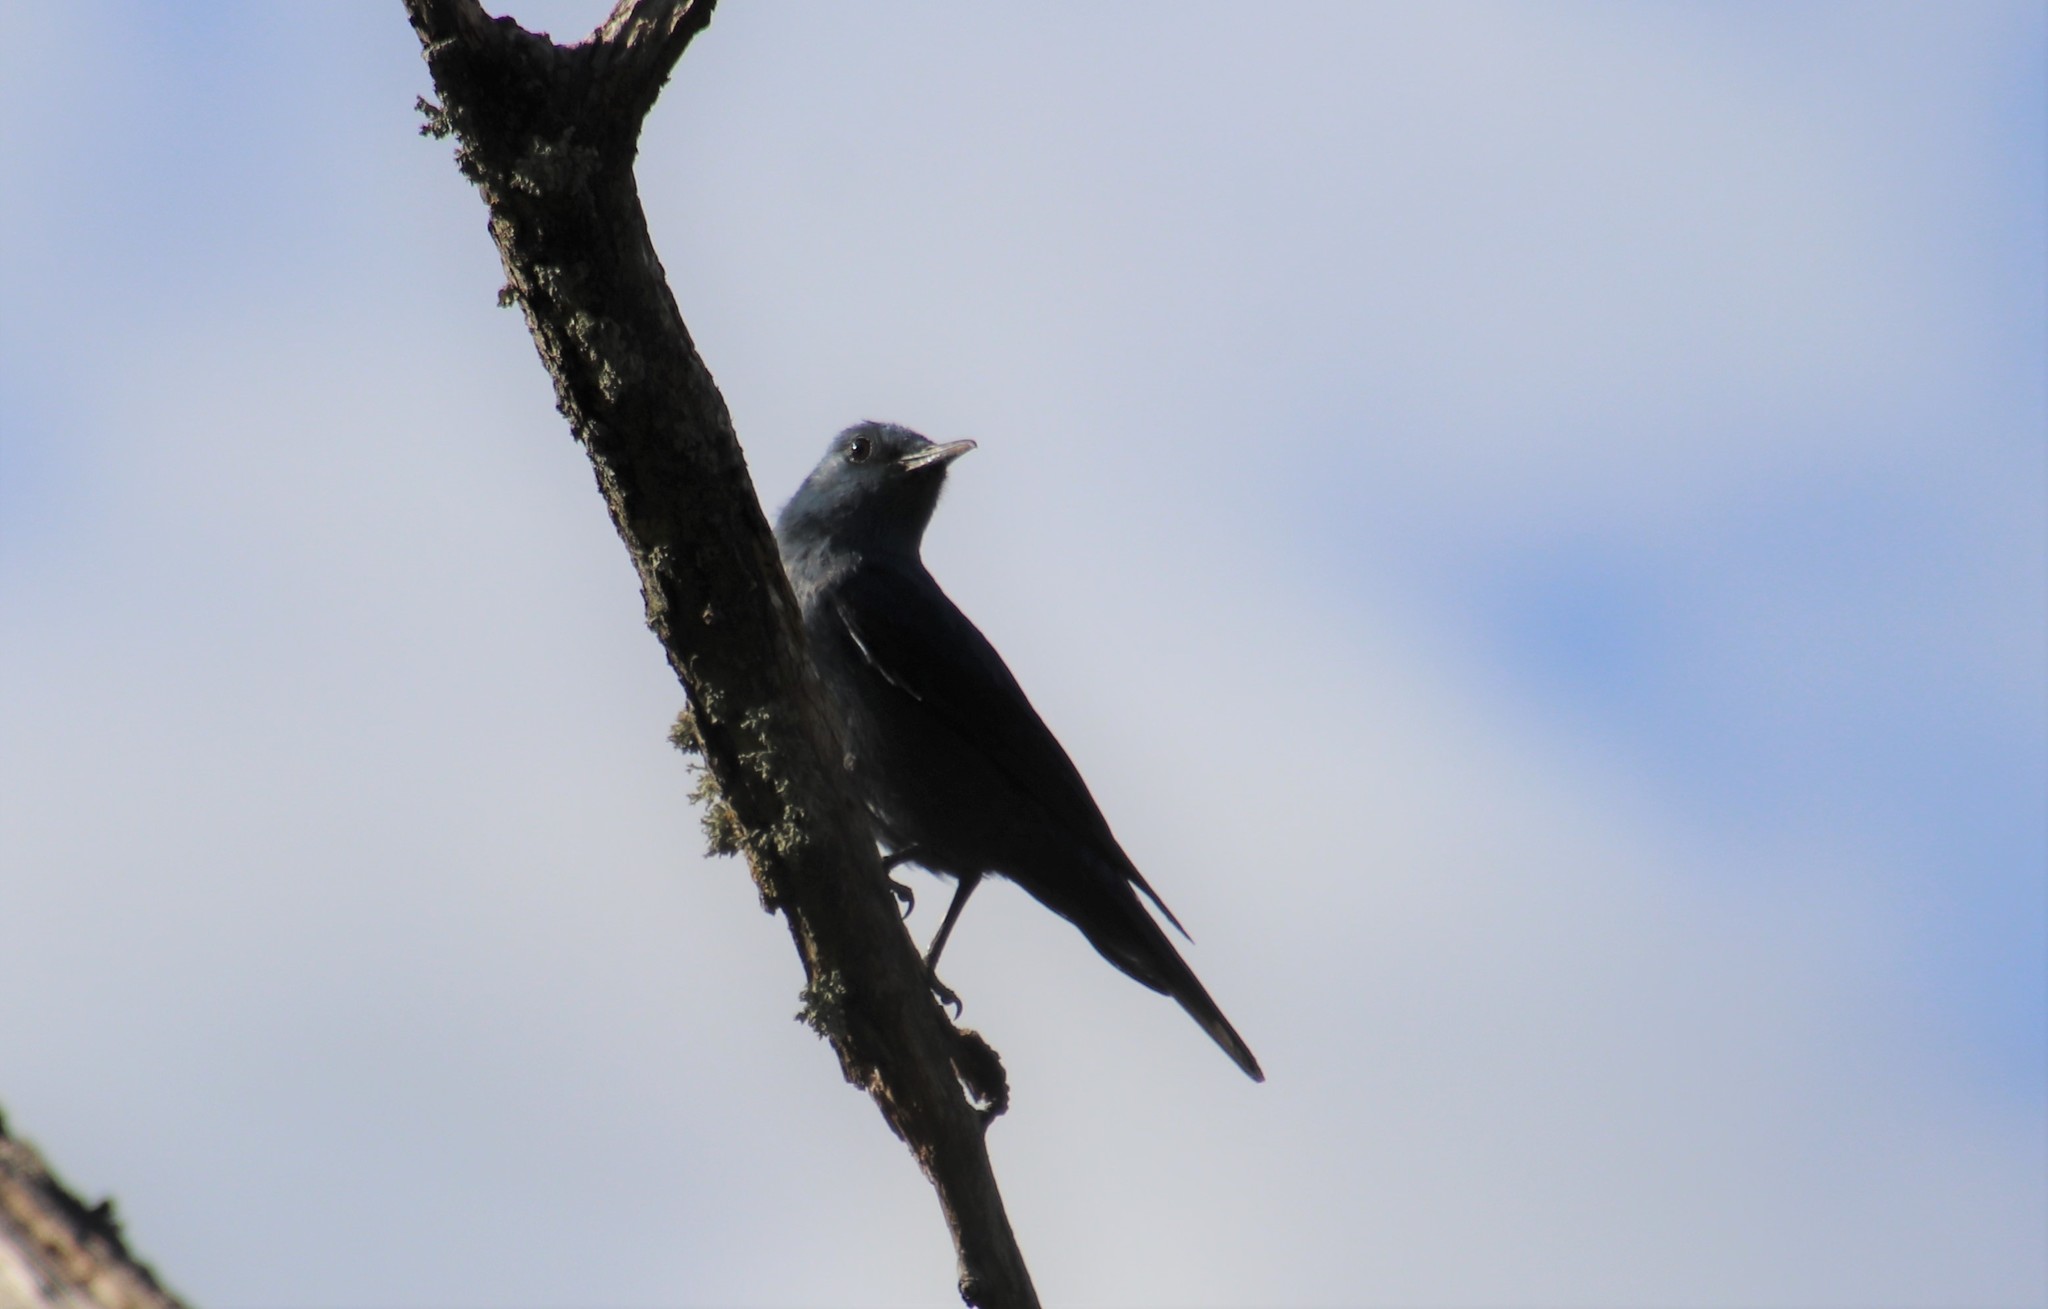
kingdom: Animalia
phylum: Chordata
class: Aves
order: Passeriformes
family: Muscicapidae
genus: Monticola
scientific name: Monticola solitarius
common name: Blue rock thrush
